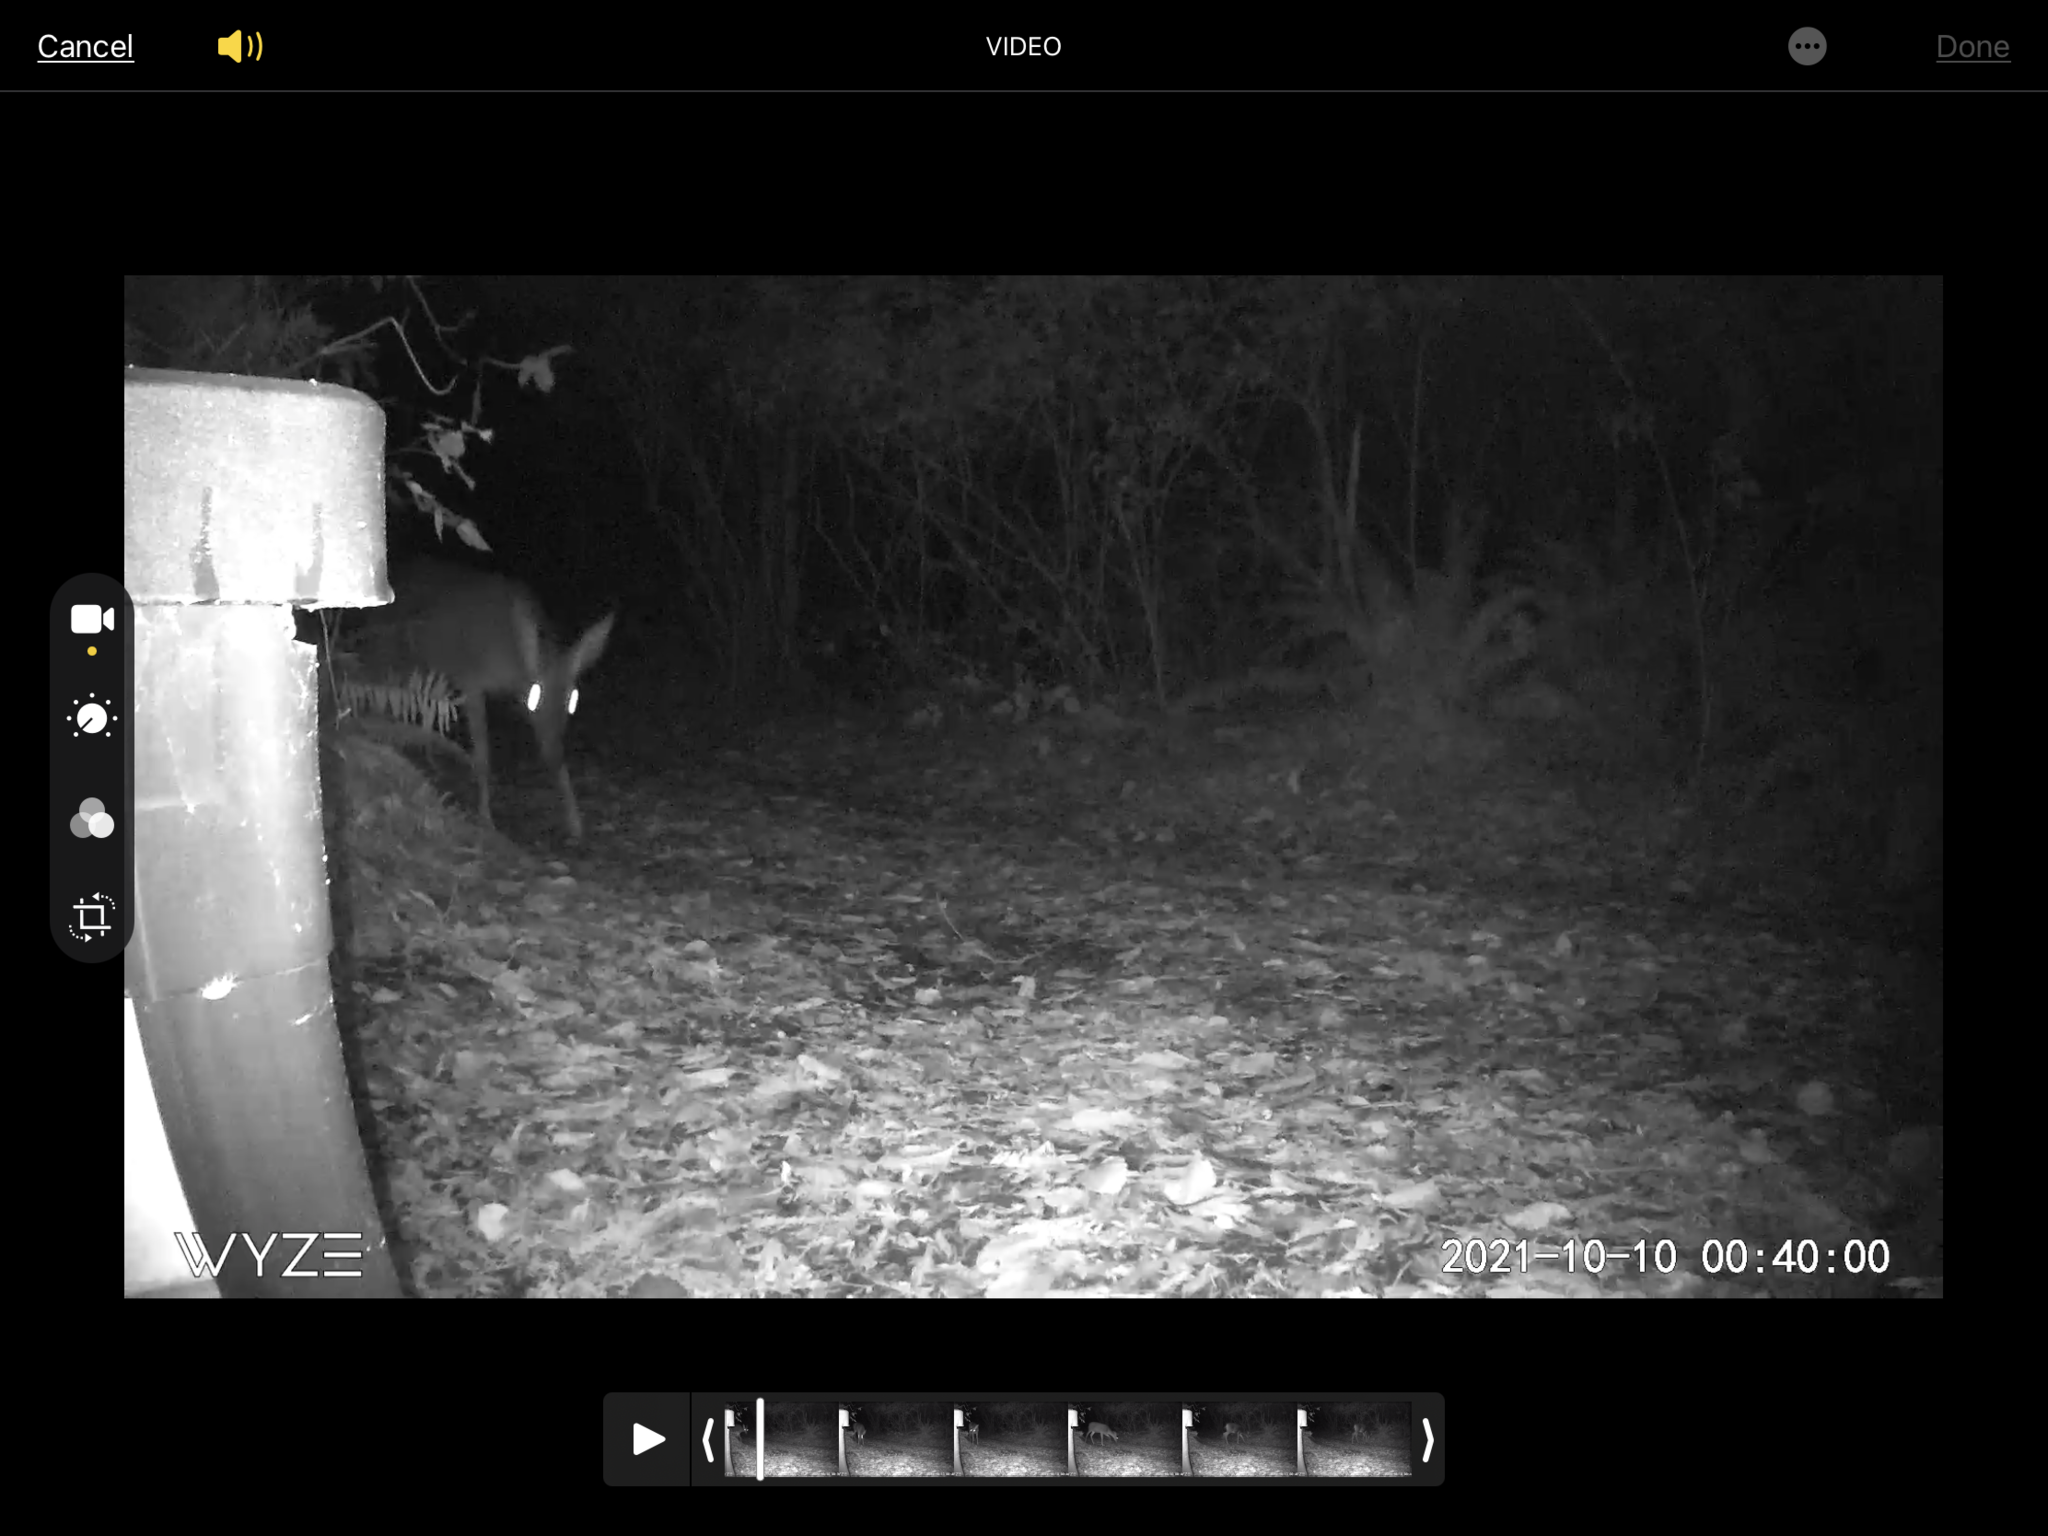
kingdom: Animalia
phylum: Chordata
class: Mammalia
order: Artiodactyla
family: Cervidae
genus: Odocoileus
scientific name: Odocoileus hemionus
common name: Mule deer
